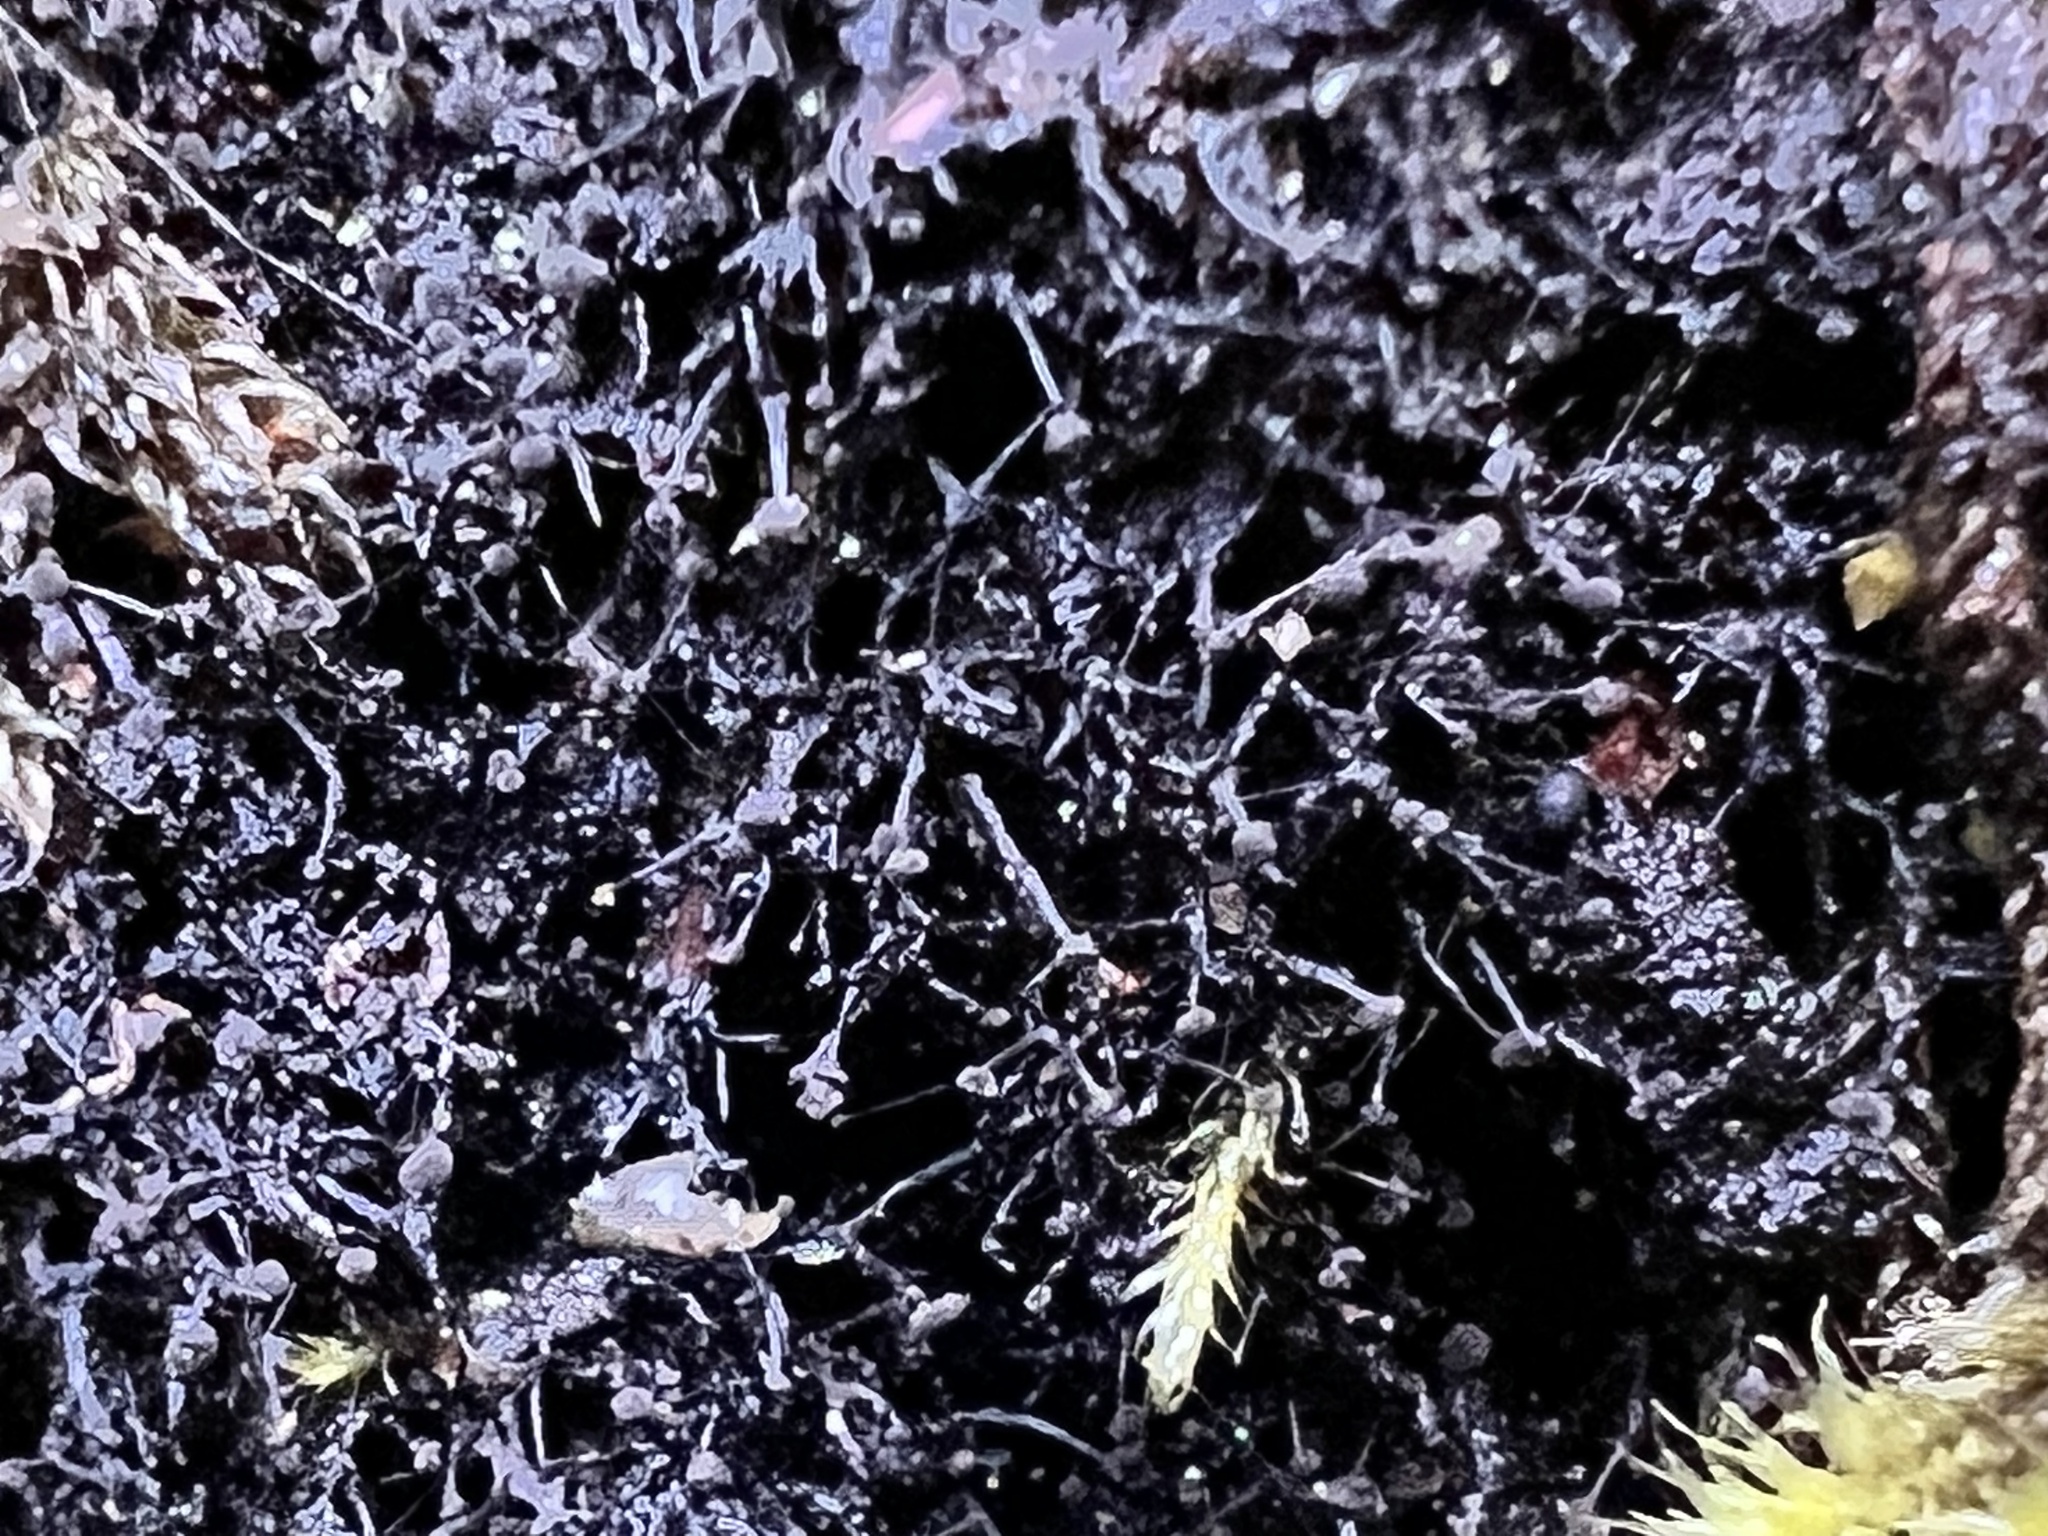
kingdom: Fungi
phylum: Ascomycota
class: Leotiomycetes
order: Helotiales
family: Amorphothecaceae
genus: Sorocybe
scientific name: Sorocybe resinae
